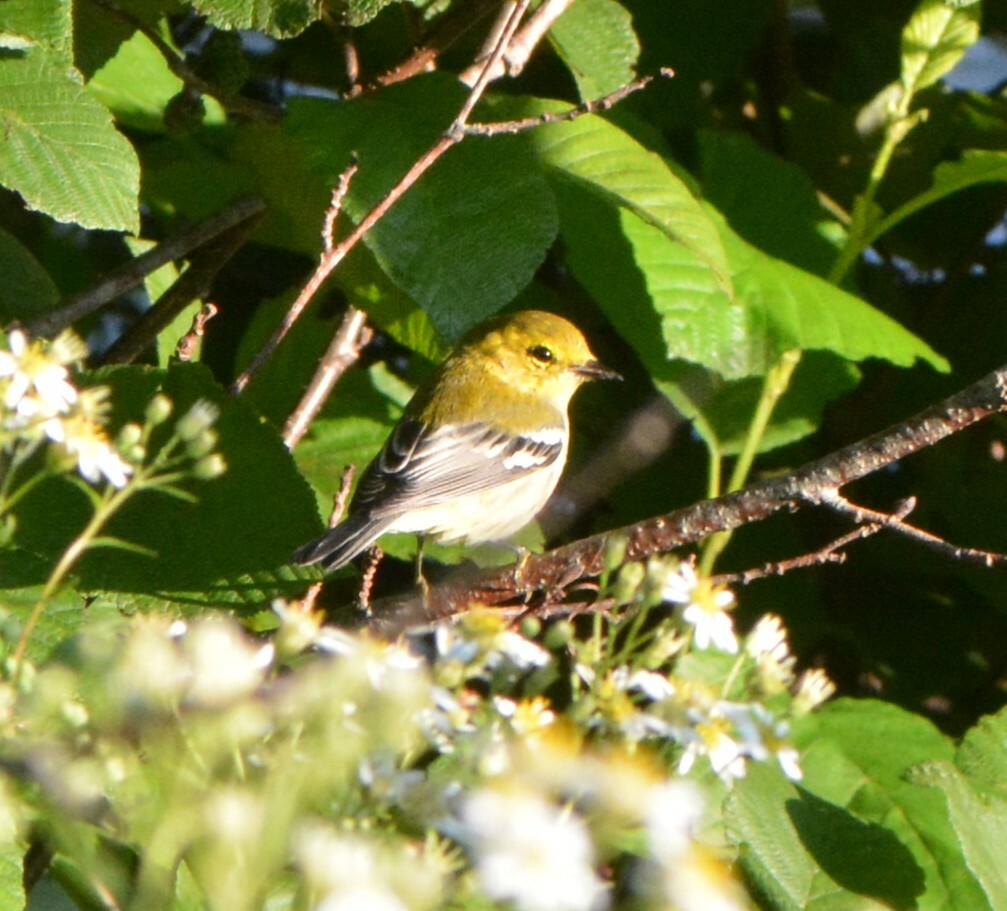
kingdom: Animalia
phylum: Chordata
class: Aves
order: Passeriformes
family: Parulidae
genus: Setophaga
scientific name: Setophaga virens
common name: Black-throated green warbler
